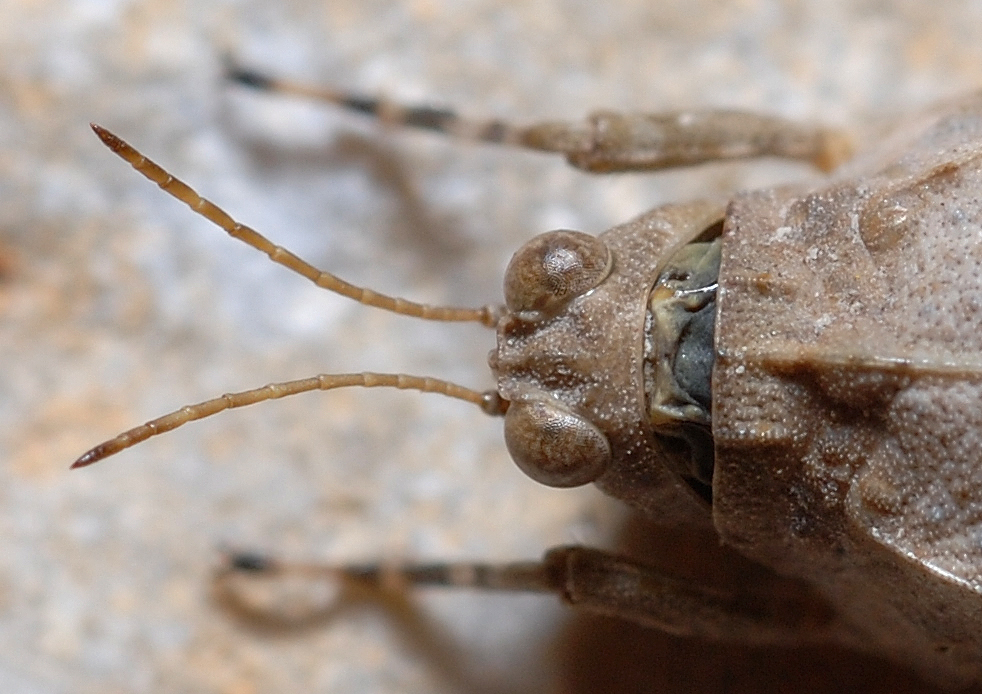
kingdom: Animalia
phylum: Arthropoda
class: Insecta
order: Orthoptera
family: Tetrigidae
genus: Paratettix
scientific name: Paratettix meridionalis
